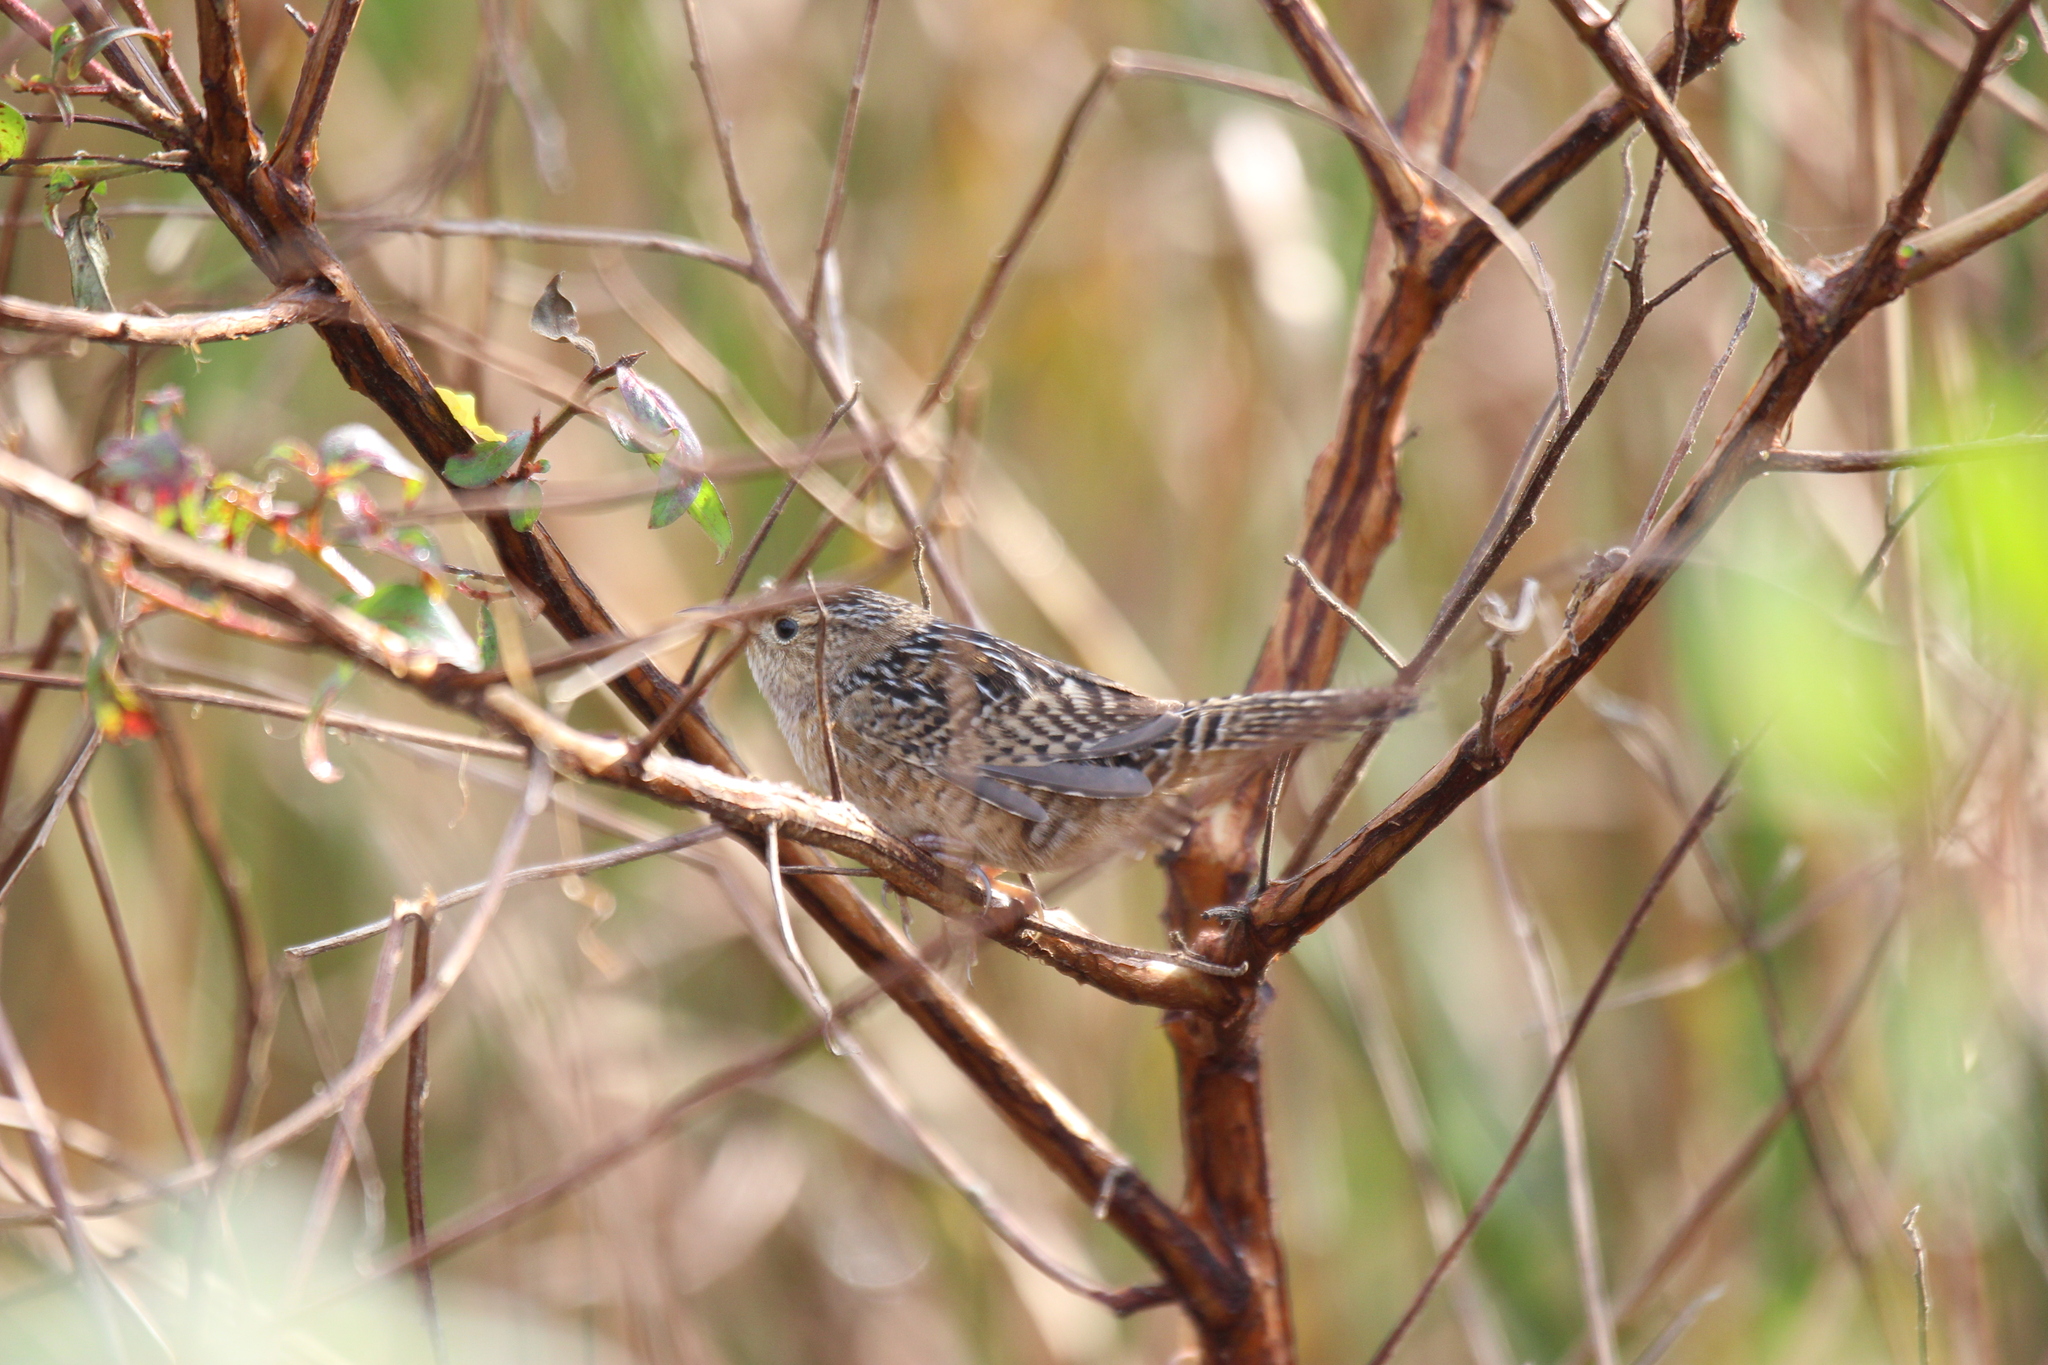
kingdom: Animalia
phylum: Chordata
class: Aves
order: Passeriformes
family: Troglodytidae
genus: Cistothorus
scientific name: Cistothorus platensis
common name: Sedge wren
